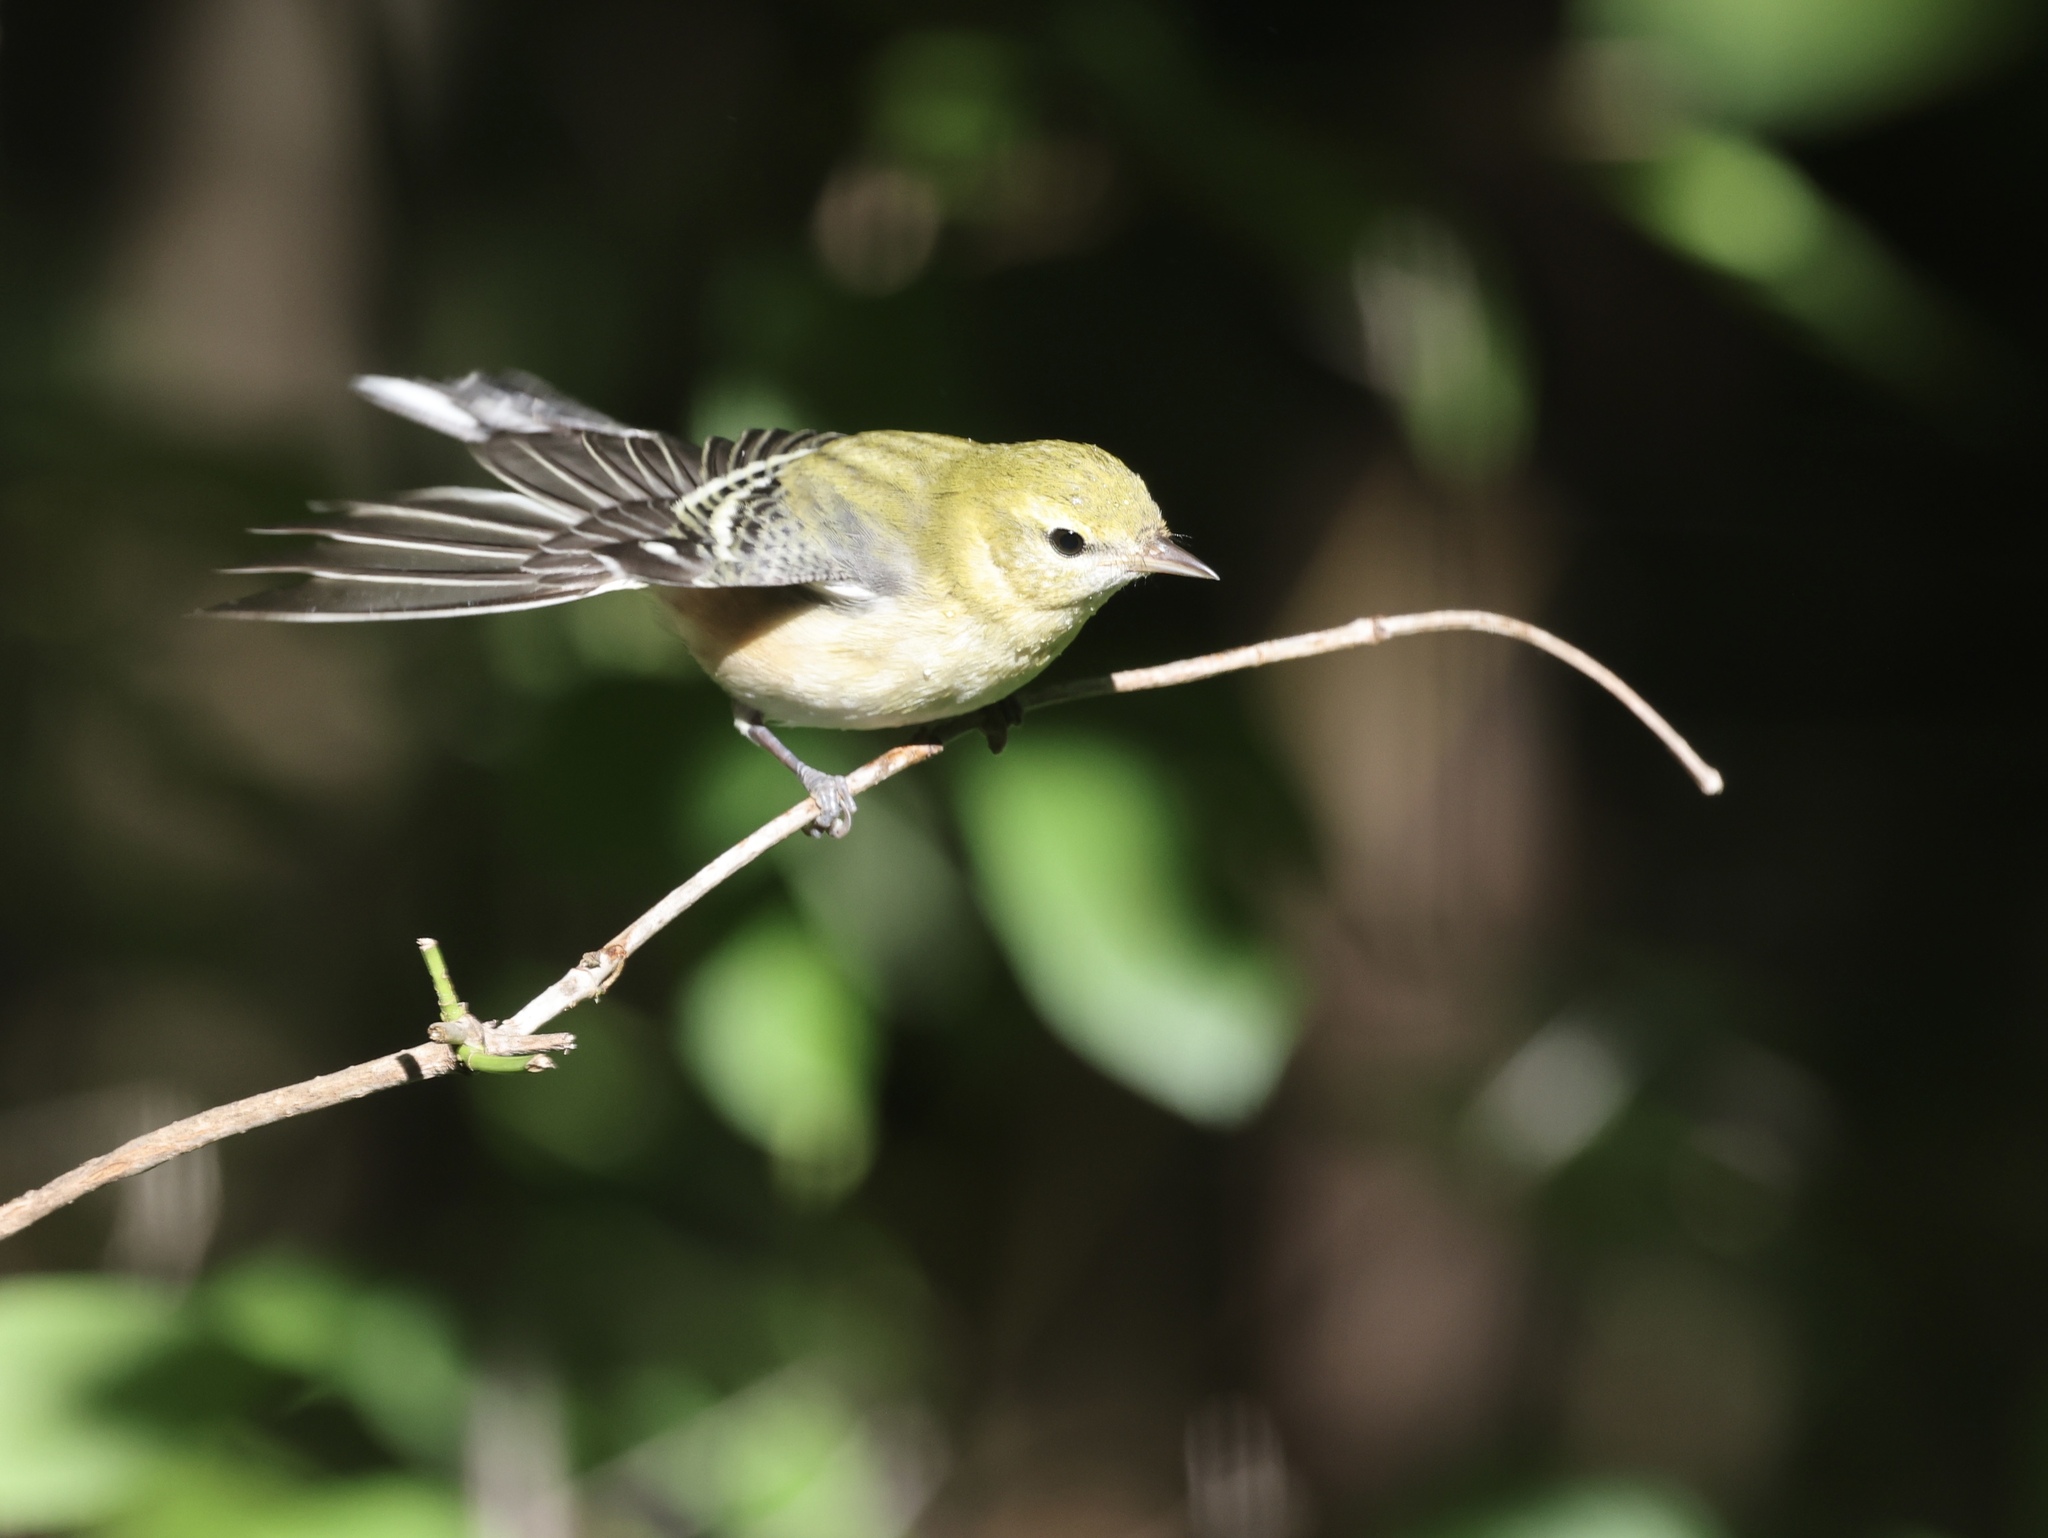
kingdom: Animalia
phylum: Chordata
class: Aves
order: Passeriformes
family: Parulidae
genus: Setophaga
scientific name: Setophaga castanea
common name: Bay-breasted warbler
